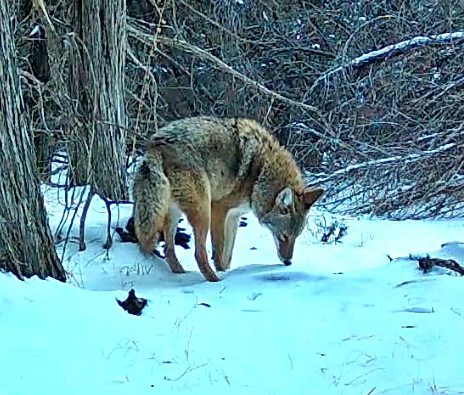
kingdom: Animalia
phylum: Chordata
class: Mammalia
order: Carnivora
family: Canidae
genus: Canis
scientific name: Canis latrans
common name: Coyote
